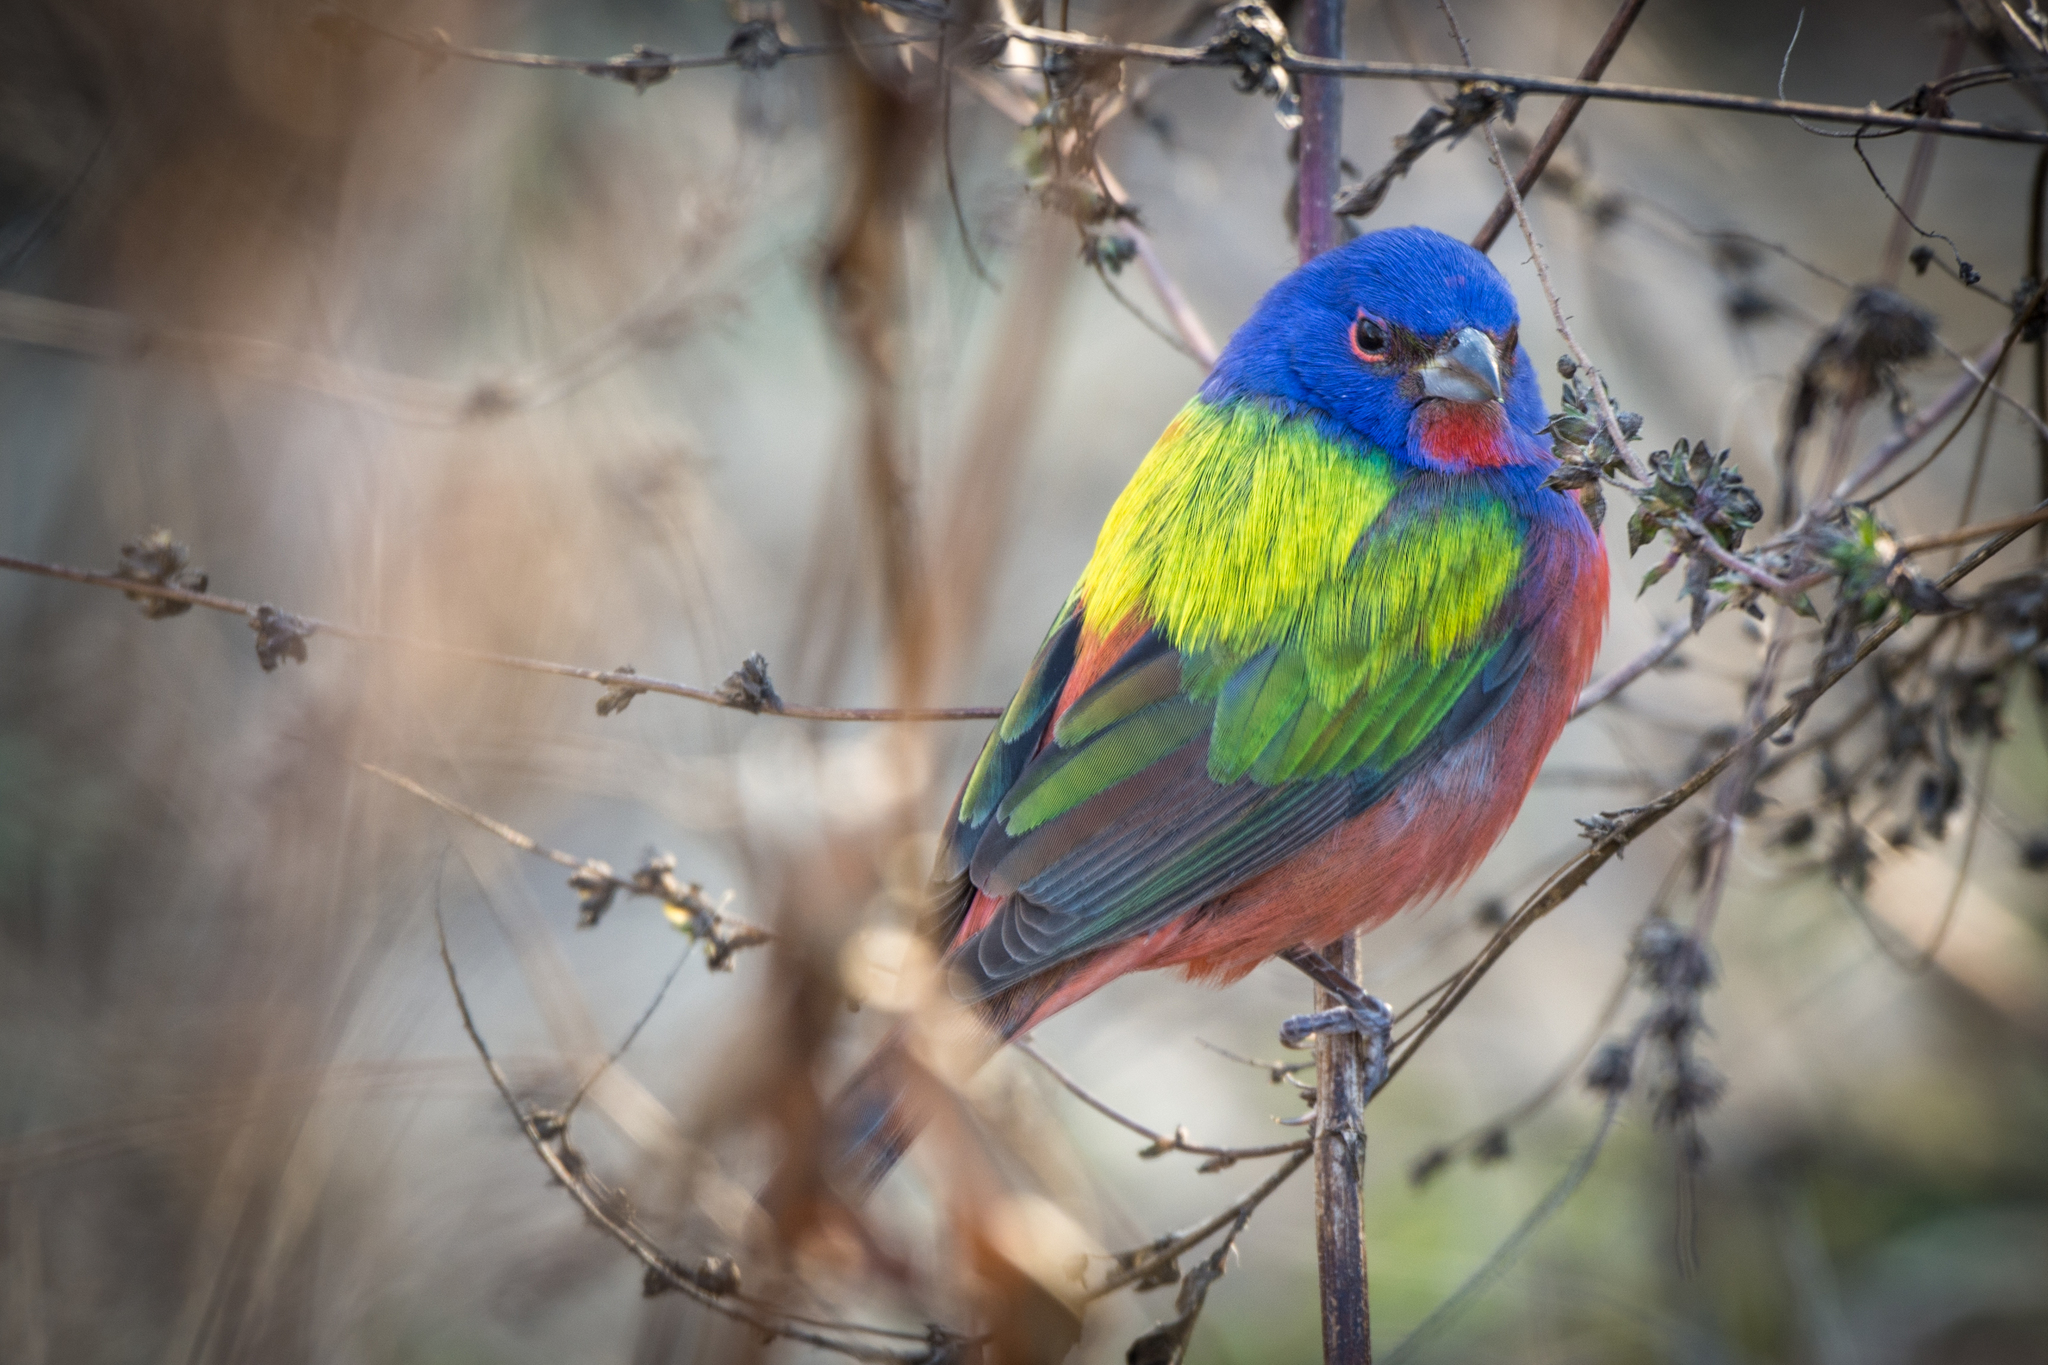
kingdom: Animalia
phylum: Chordata
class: Aves
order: Passeriformes
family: Cardinalidae
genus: Passerina
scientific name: Passerina ciris
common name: Painted bunting
